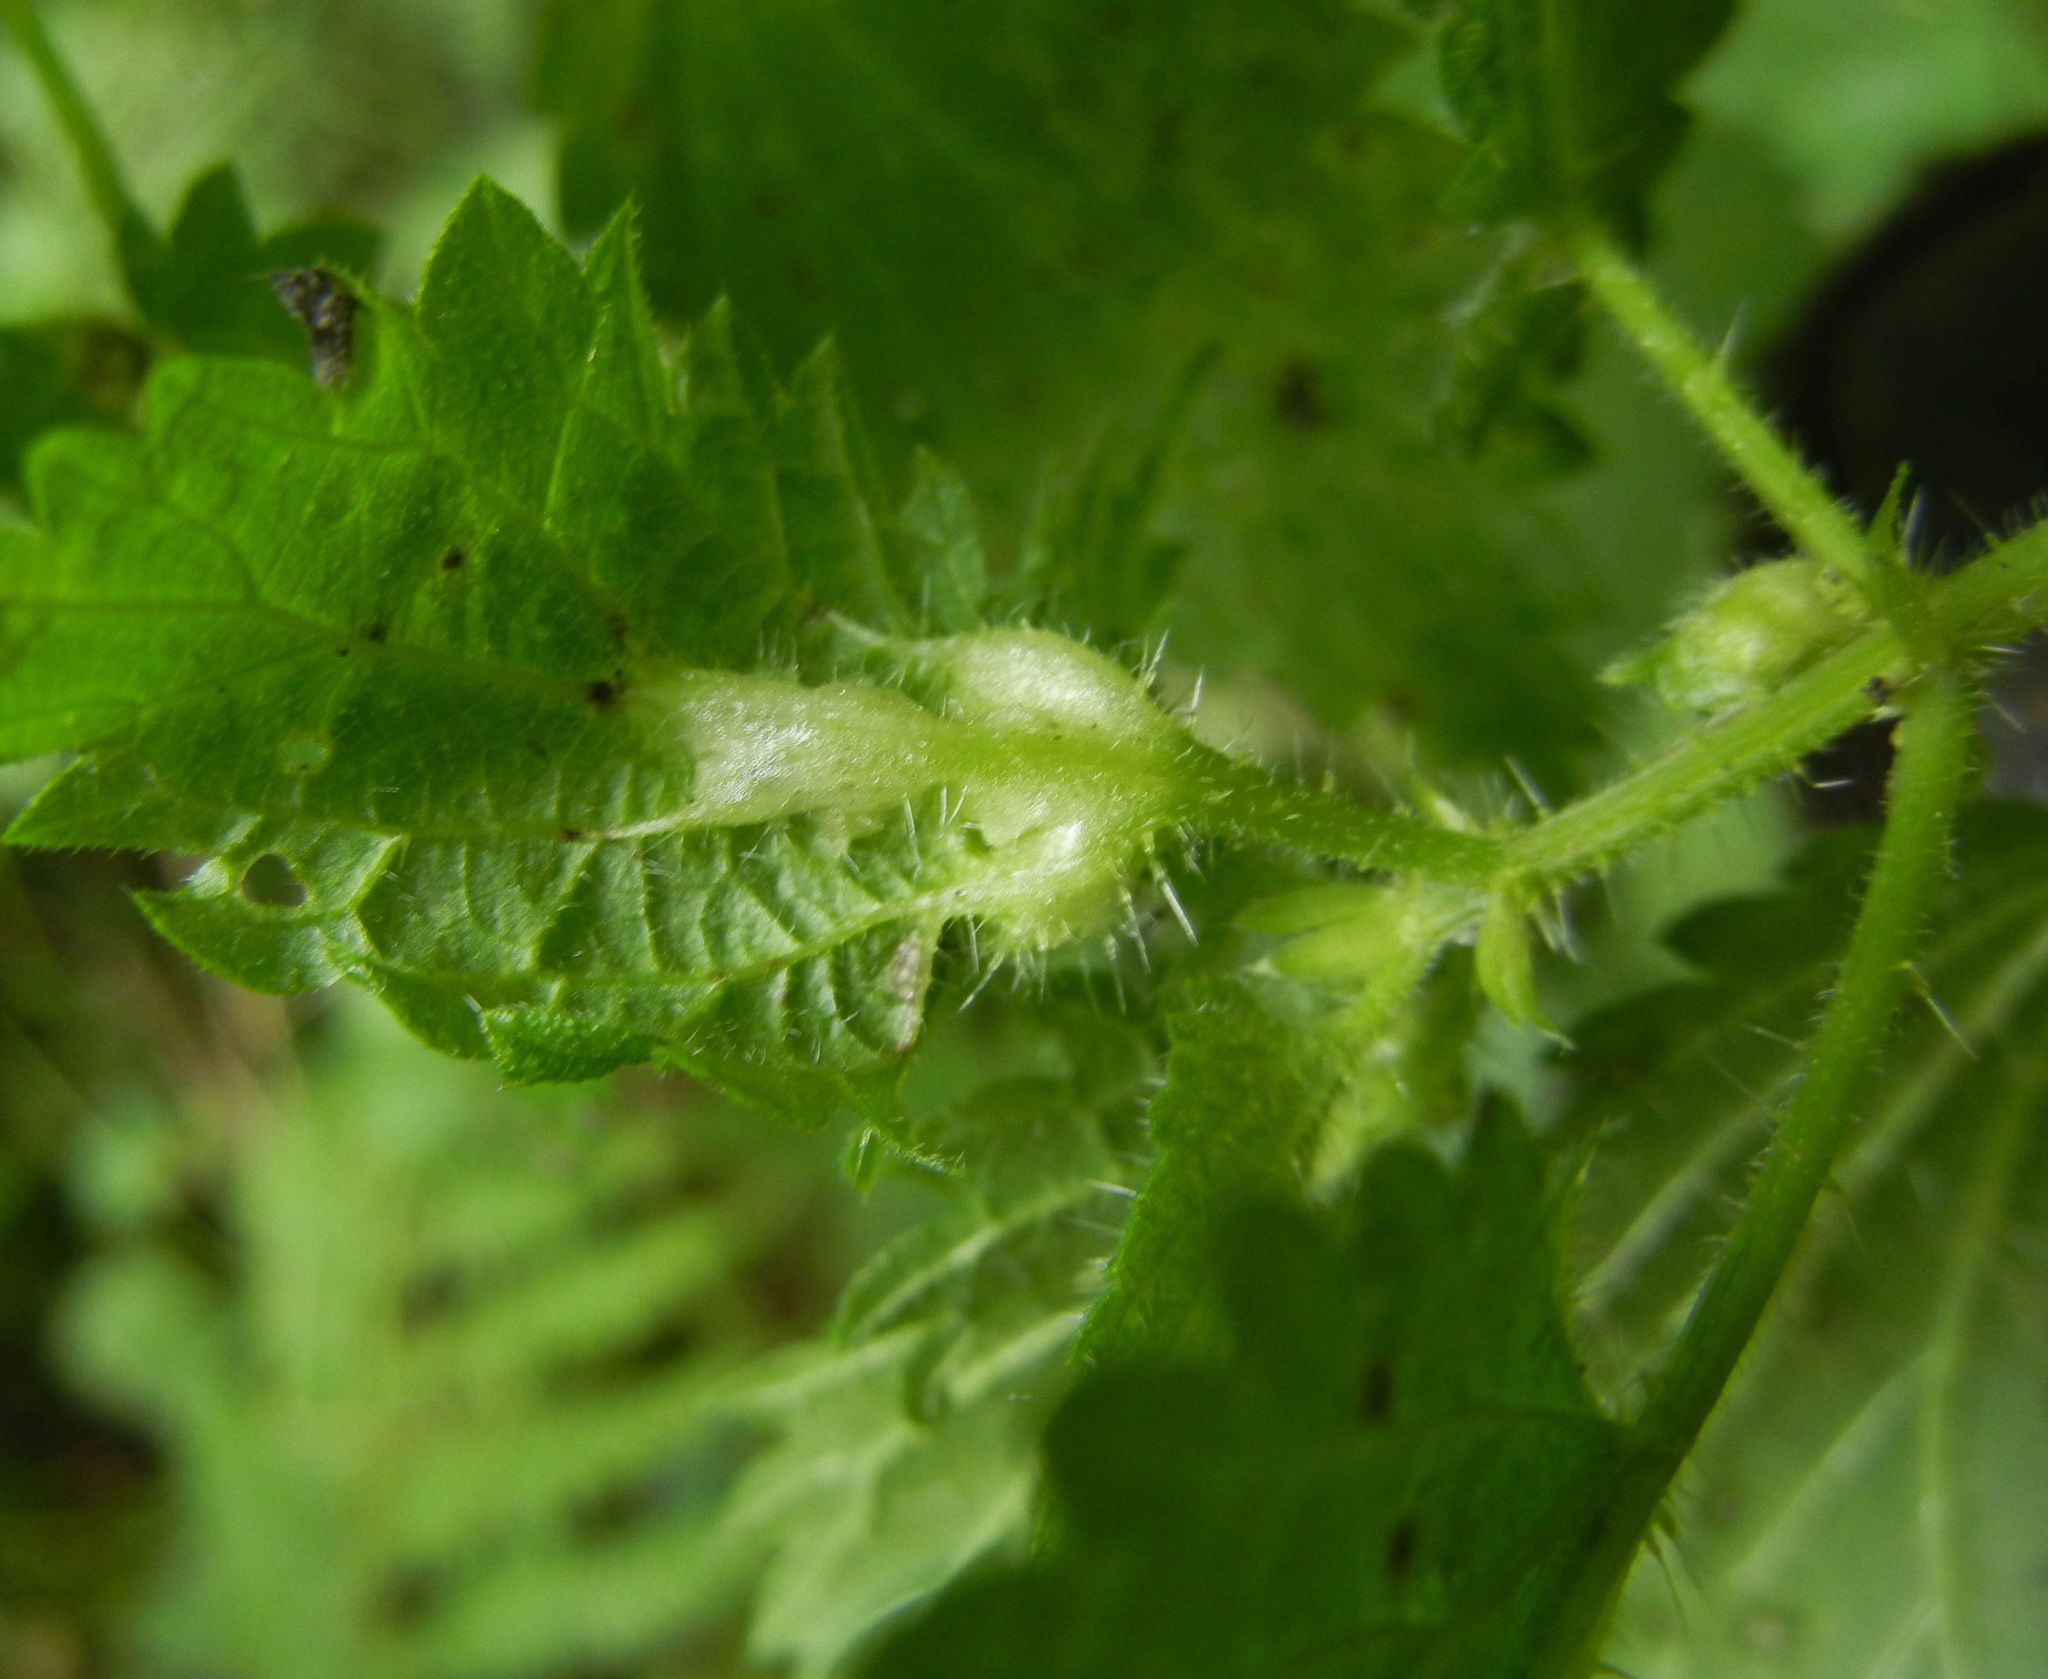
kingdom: Animalia
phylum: Arthropoda
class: Insecta
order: Diptera
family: Cecidomyiidae
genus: Dasineura
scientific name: Dasineura urticae
